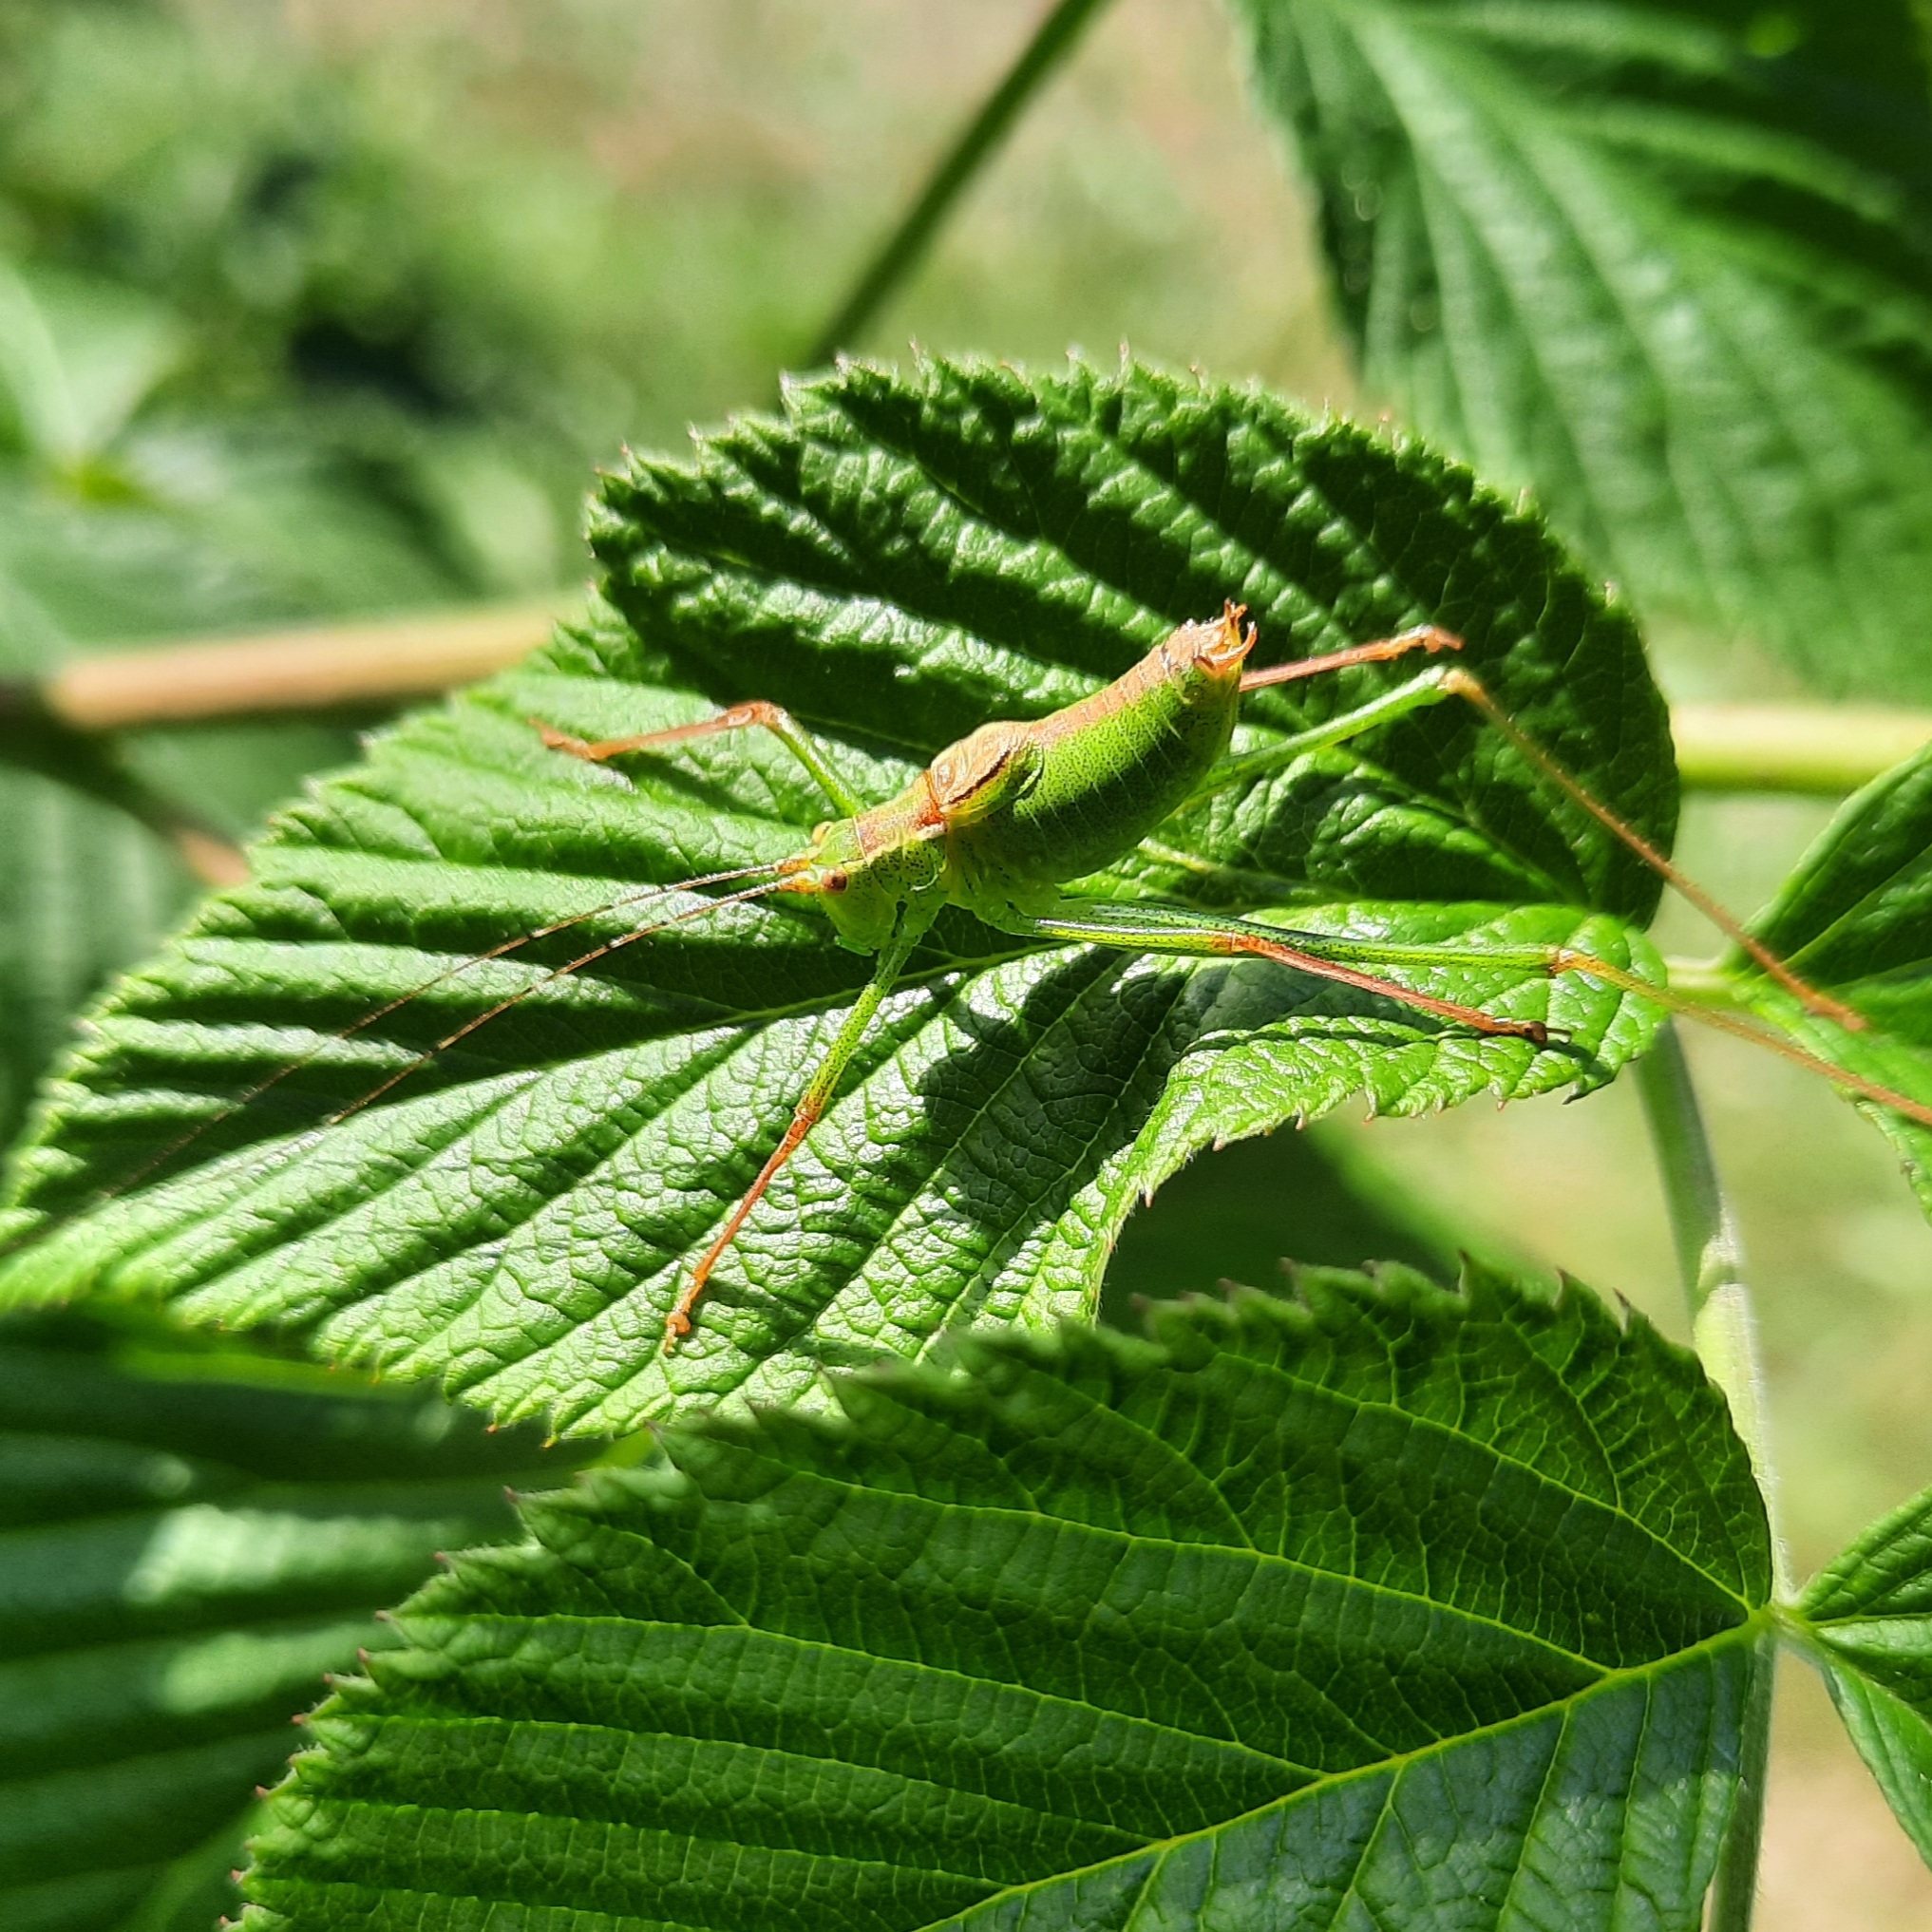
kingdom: Animalia
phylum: Arthropoda
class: Insecta
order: Orthoptera
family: Tettigoniidae
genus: Leptophyes
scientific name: Leptophyes punctatissima
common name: Speckled bush-cricket
